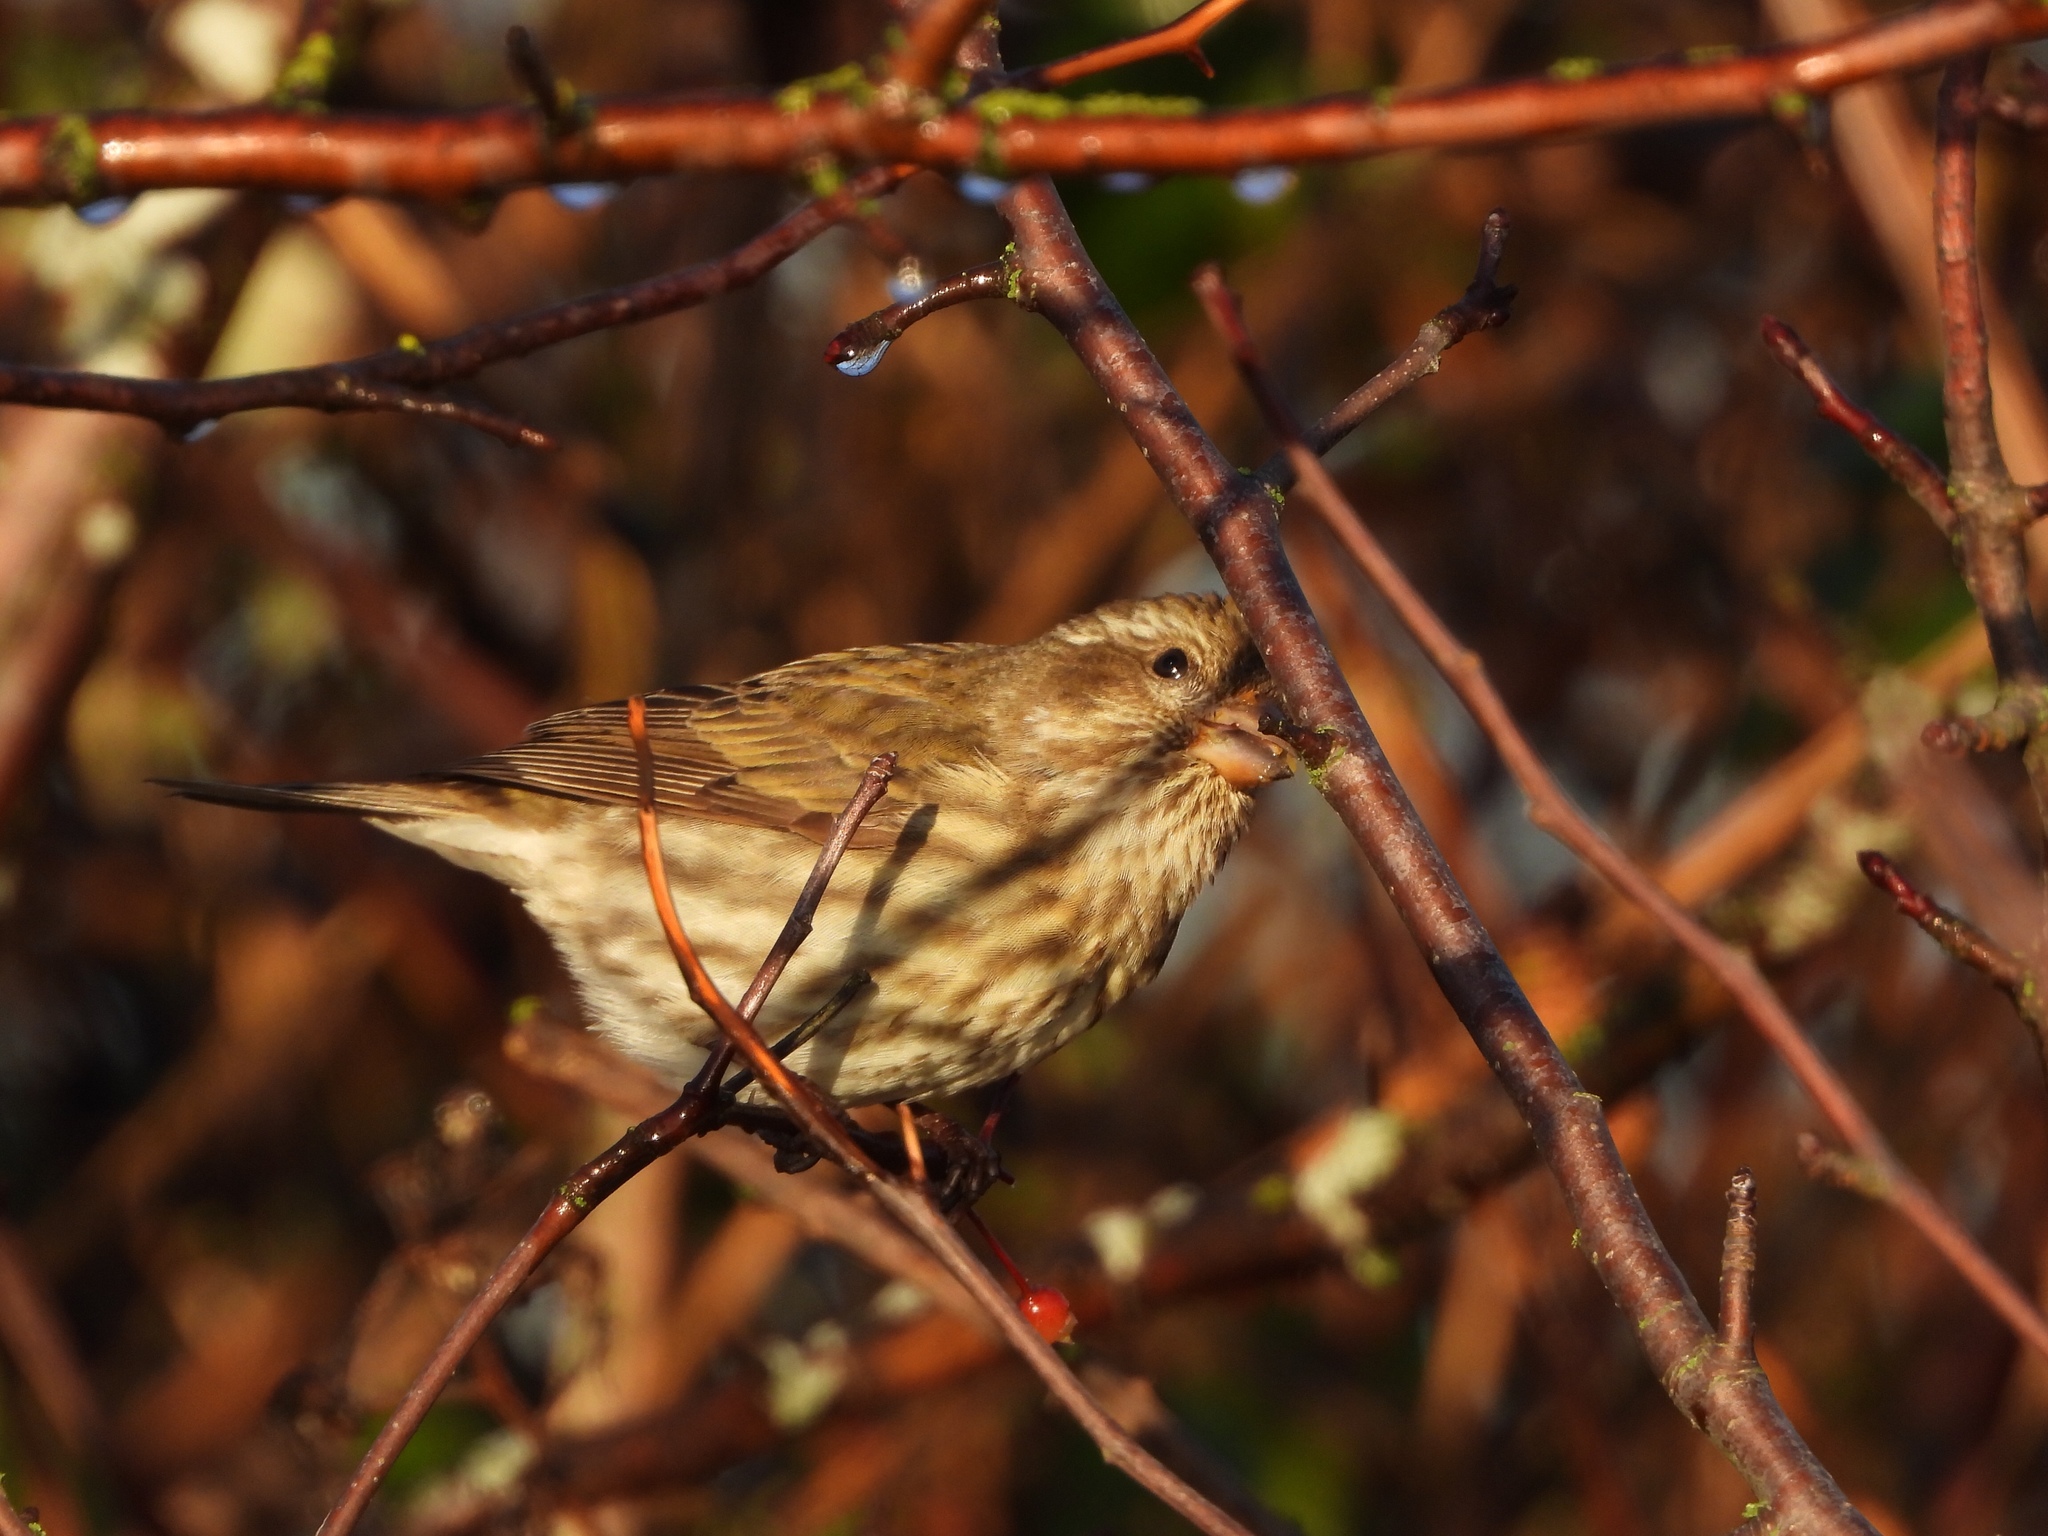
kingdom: Animalia
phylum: Chordata
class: Aves
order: Passeriformes
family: Fringillidae
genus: Haemorhous
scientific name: Haemorhous purpureus
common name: Purple finch
